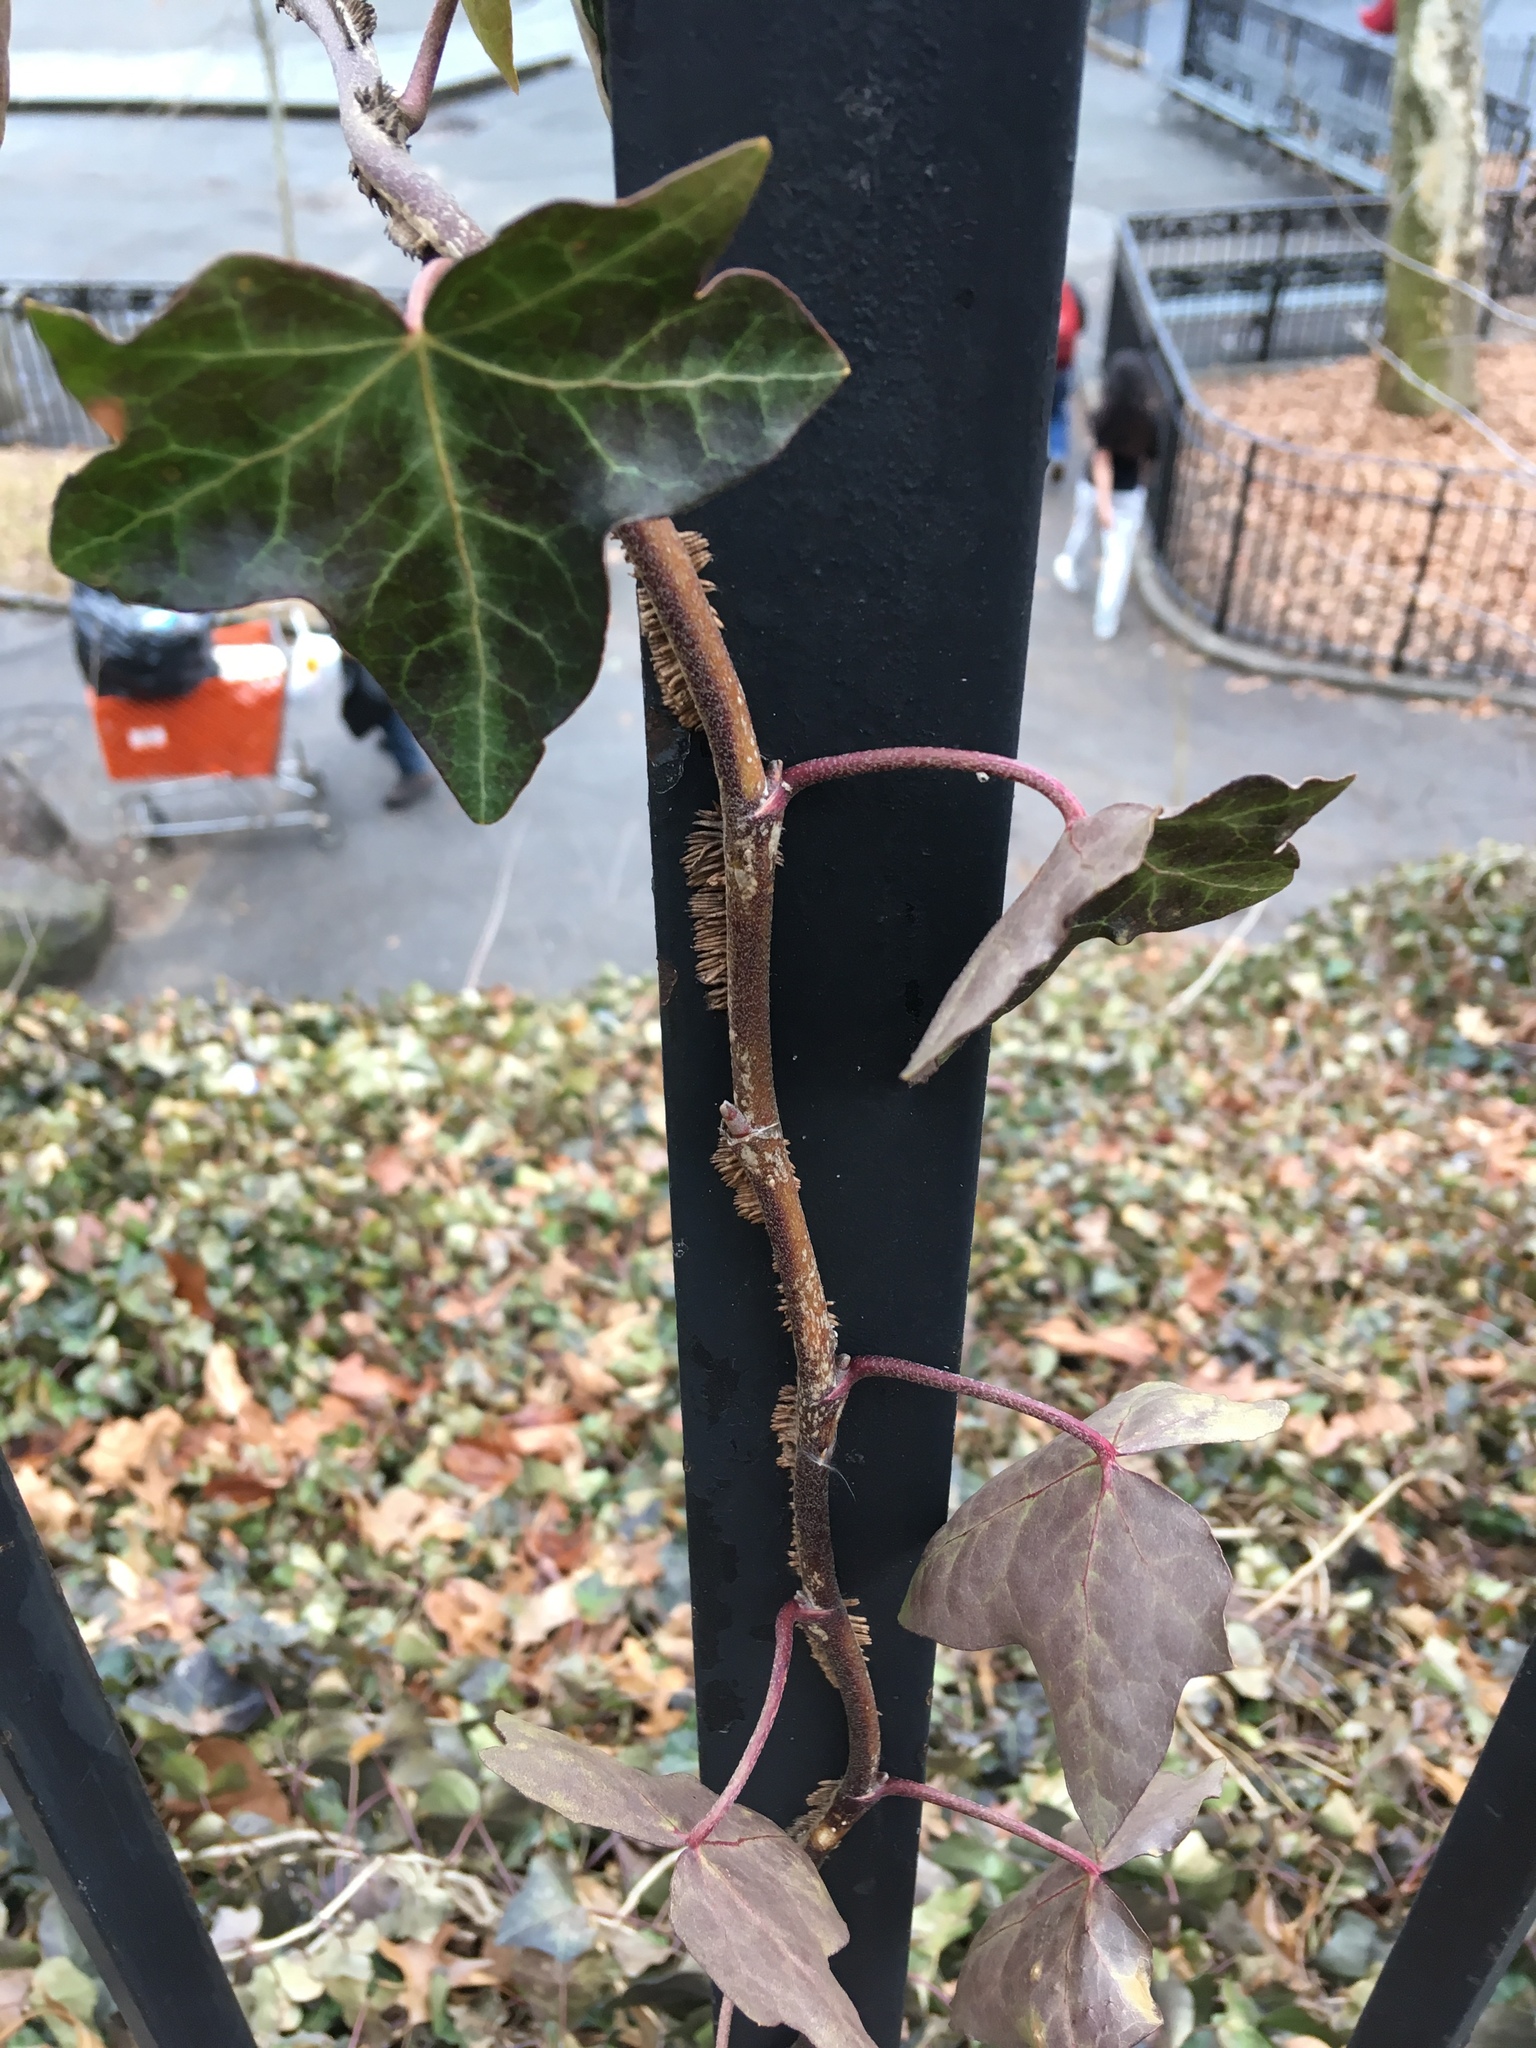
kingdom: Plantae
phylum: Tracheophyta
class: Magnoliopsida
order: Apiales
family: Araliaceae
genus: Hedera
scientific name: Hedera helix
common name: Ivy
